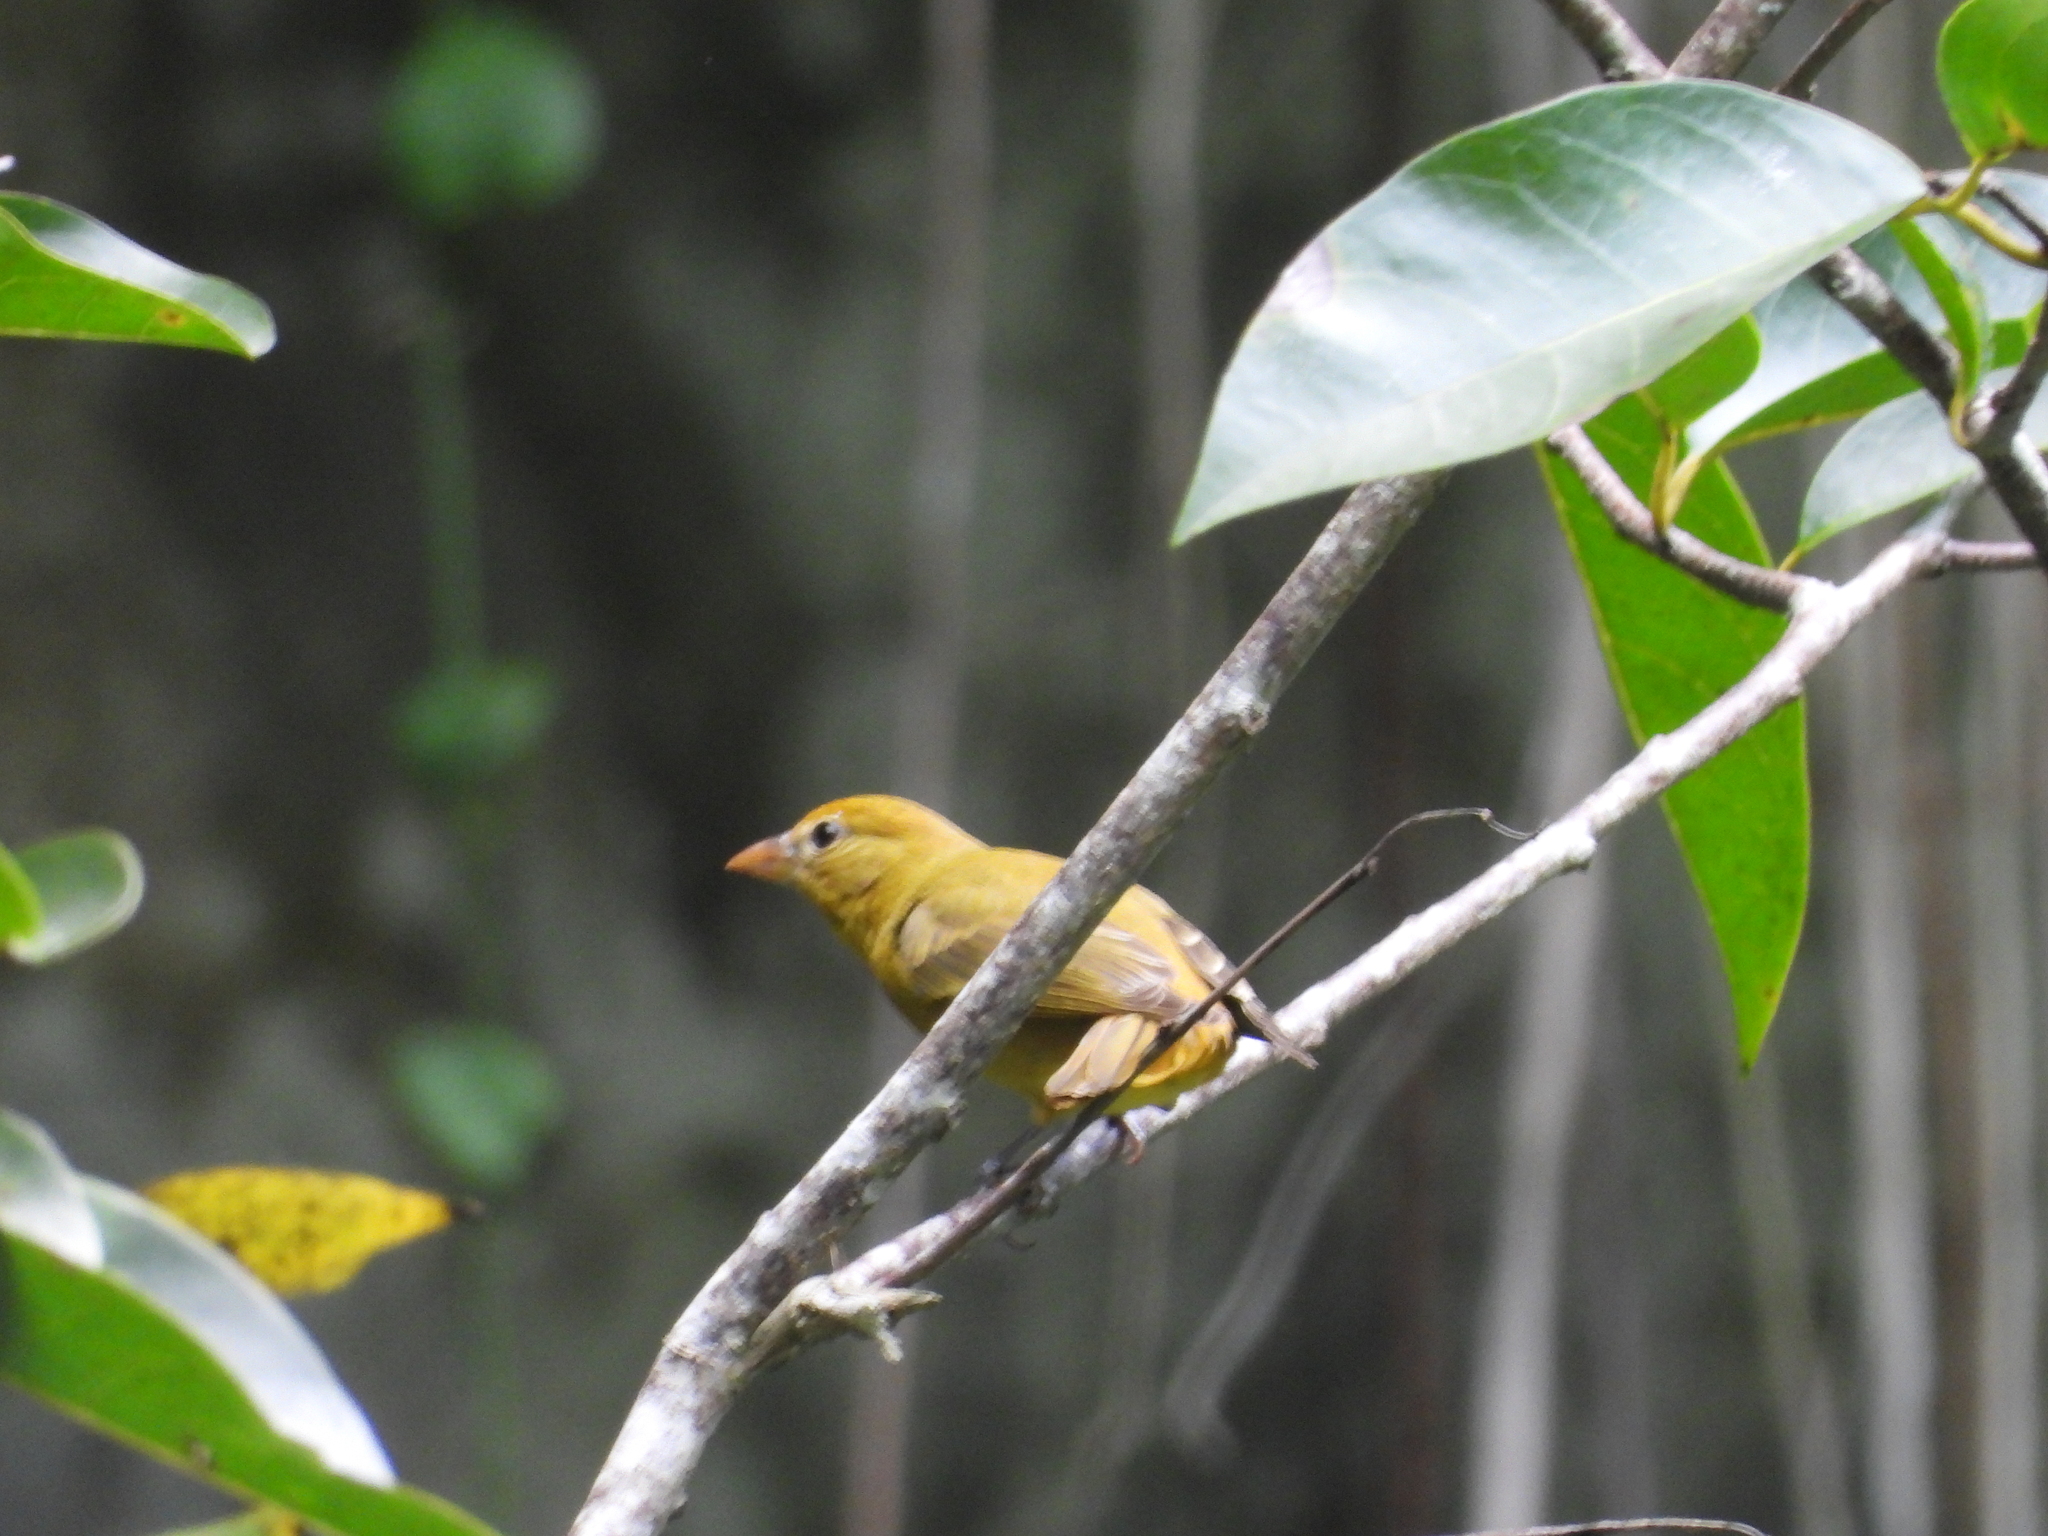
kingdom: Animalia
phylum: Chordata
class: Aves
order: Passeriformes
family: Cardinalidae
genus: Piranga
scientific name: Piranga rubra
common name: Summer tanager
